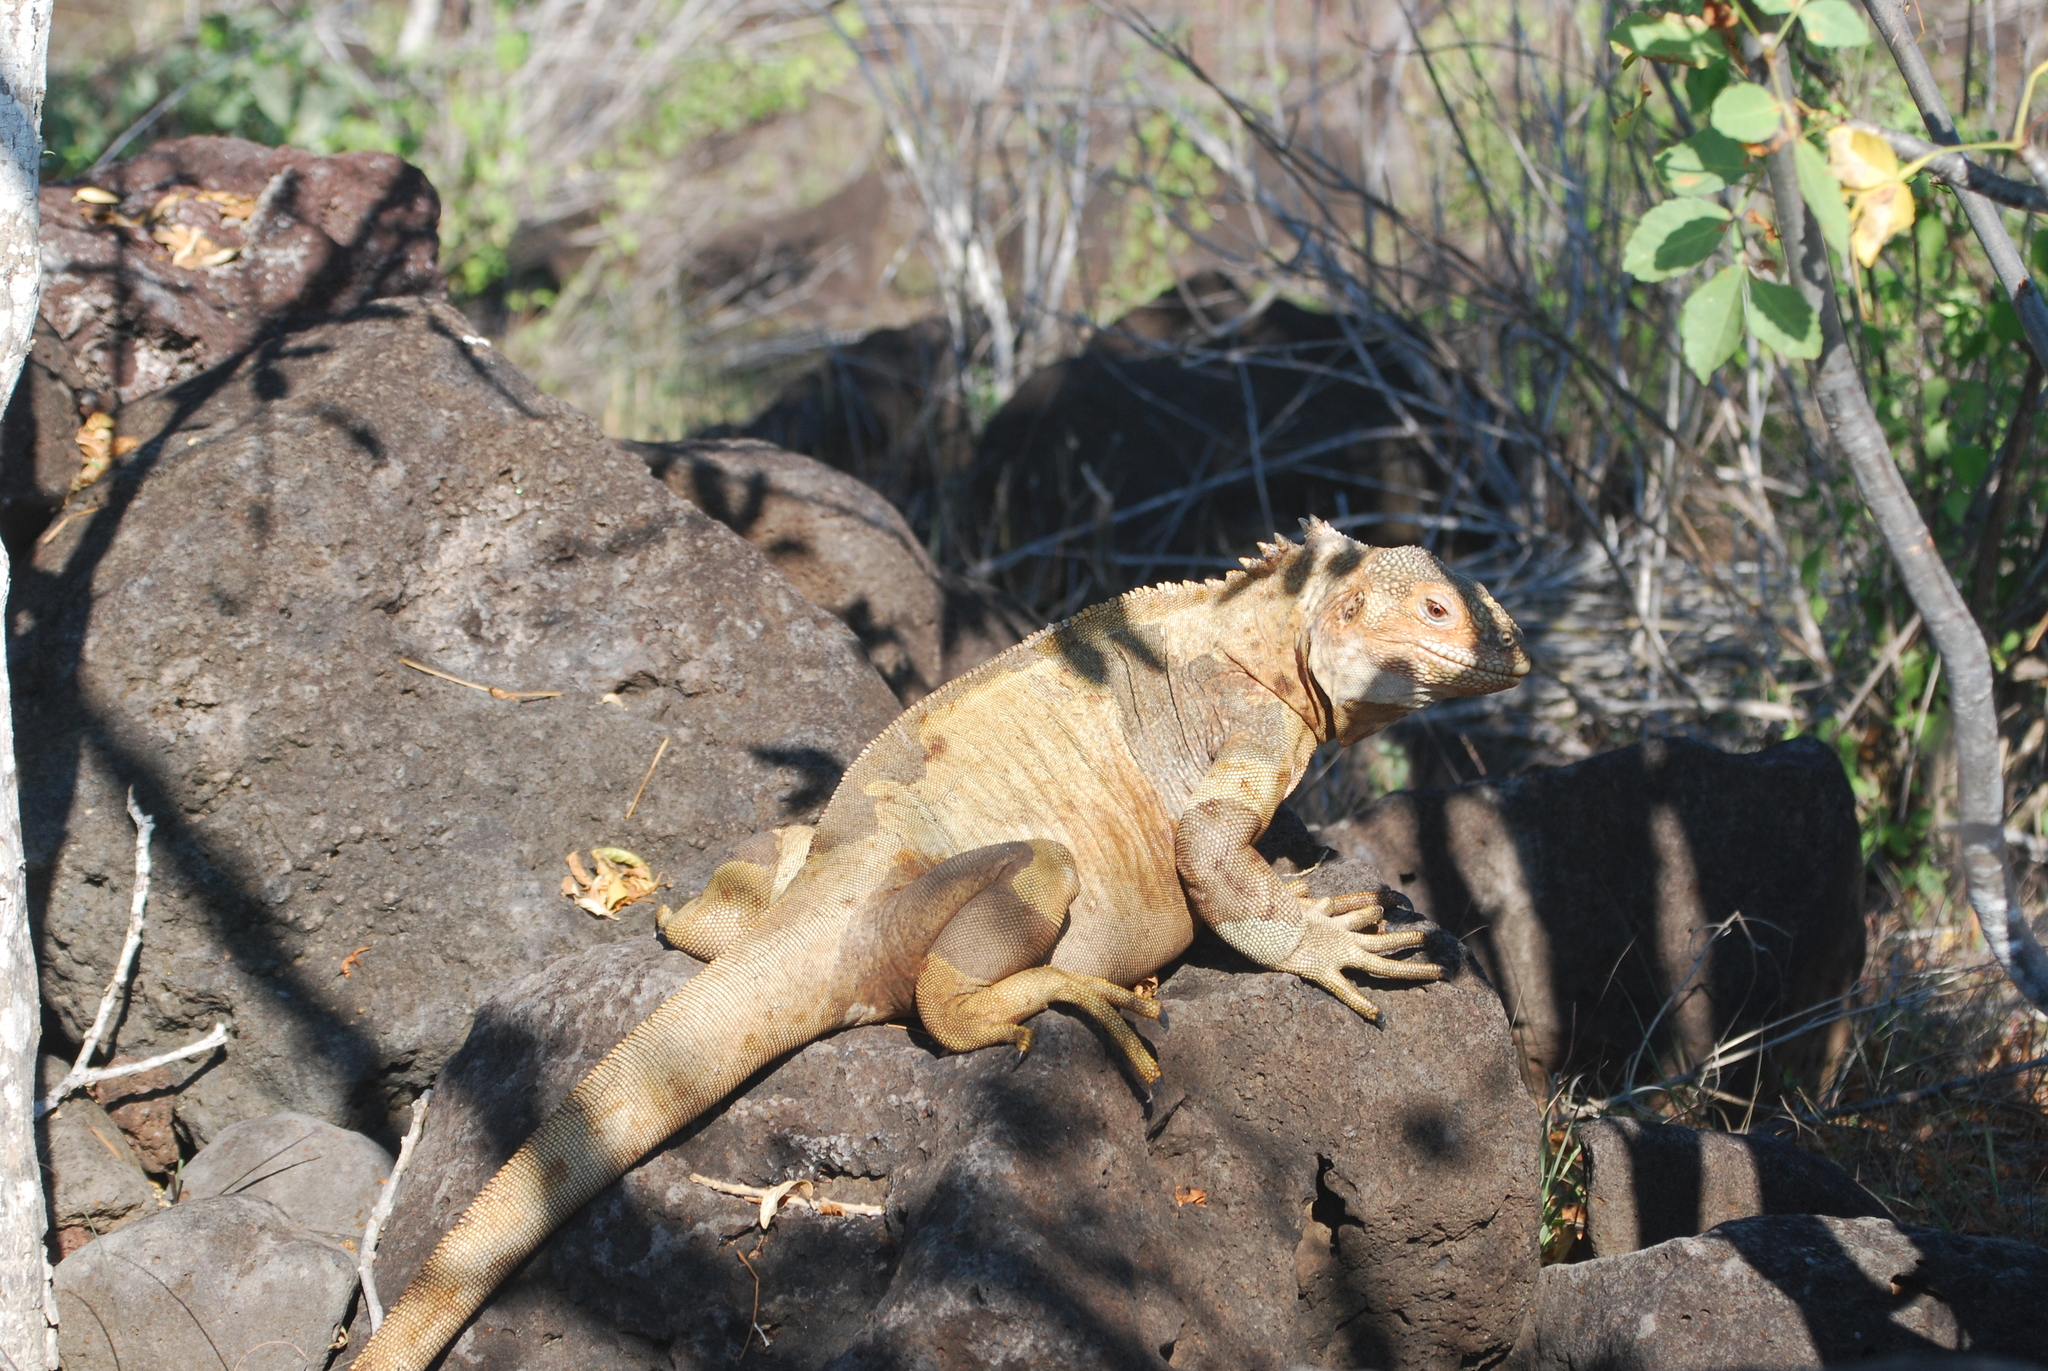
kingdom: Animalia
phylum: Chordata
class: Squamata
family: Iguanidae
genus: Conolophus
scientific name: Conolophus pallidus
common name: Santa fe land iguana
